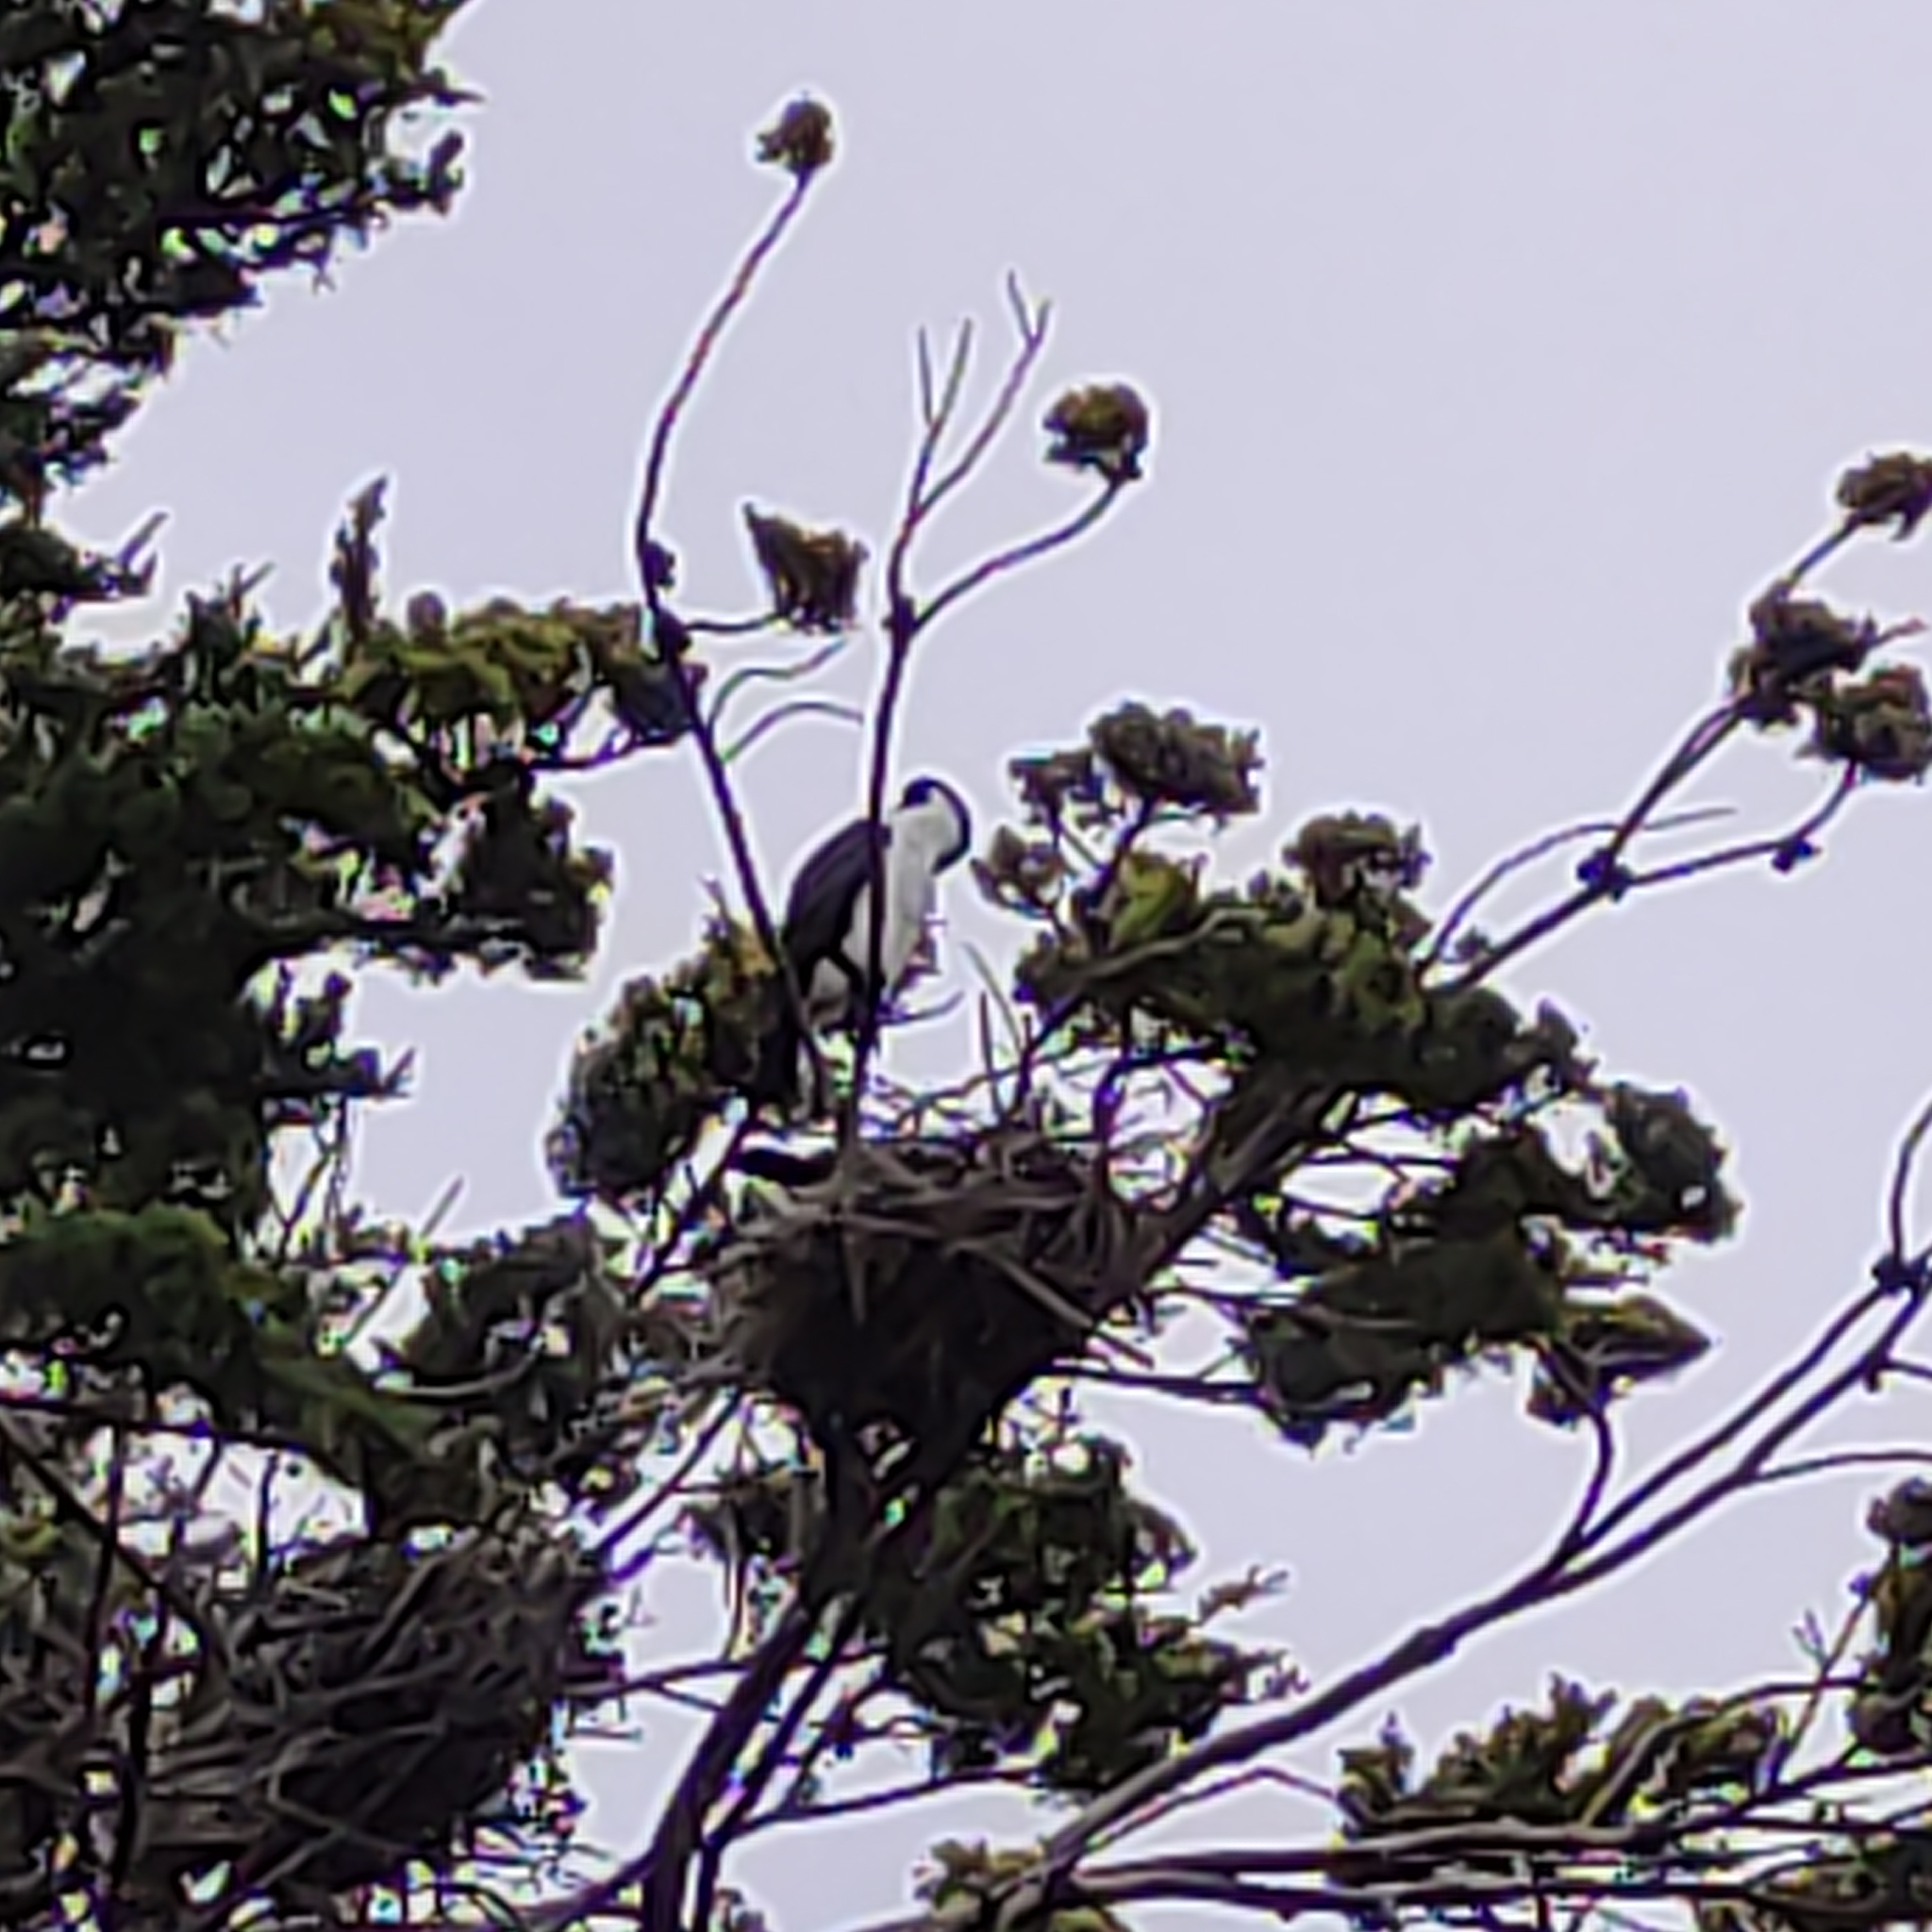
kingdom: Animalia
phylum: Chordata
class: Aves
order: Suliformes
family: Phalacrocoracidae
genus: Phalacrocorax
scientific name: Phalacrocorax varius
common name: Pied cormorant
